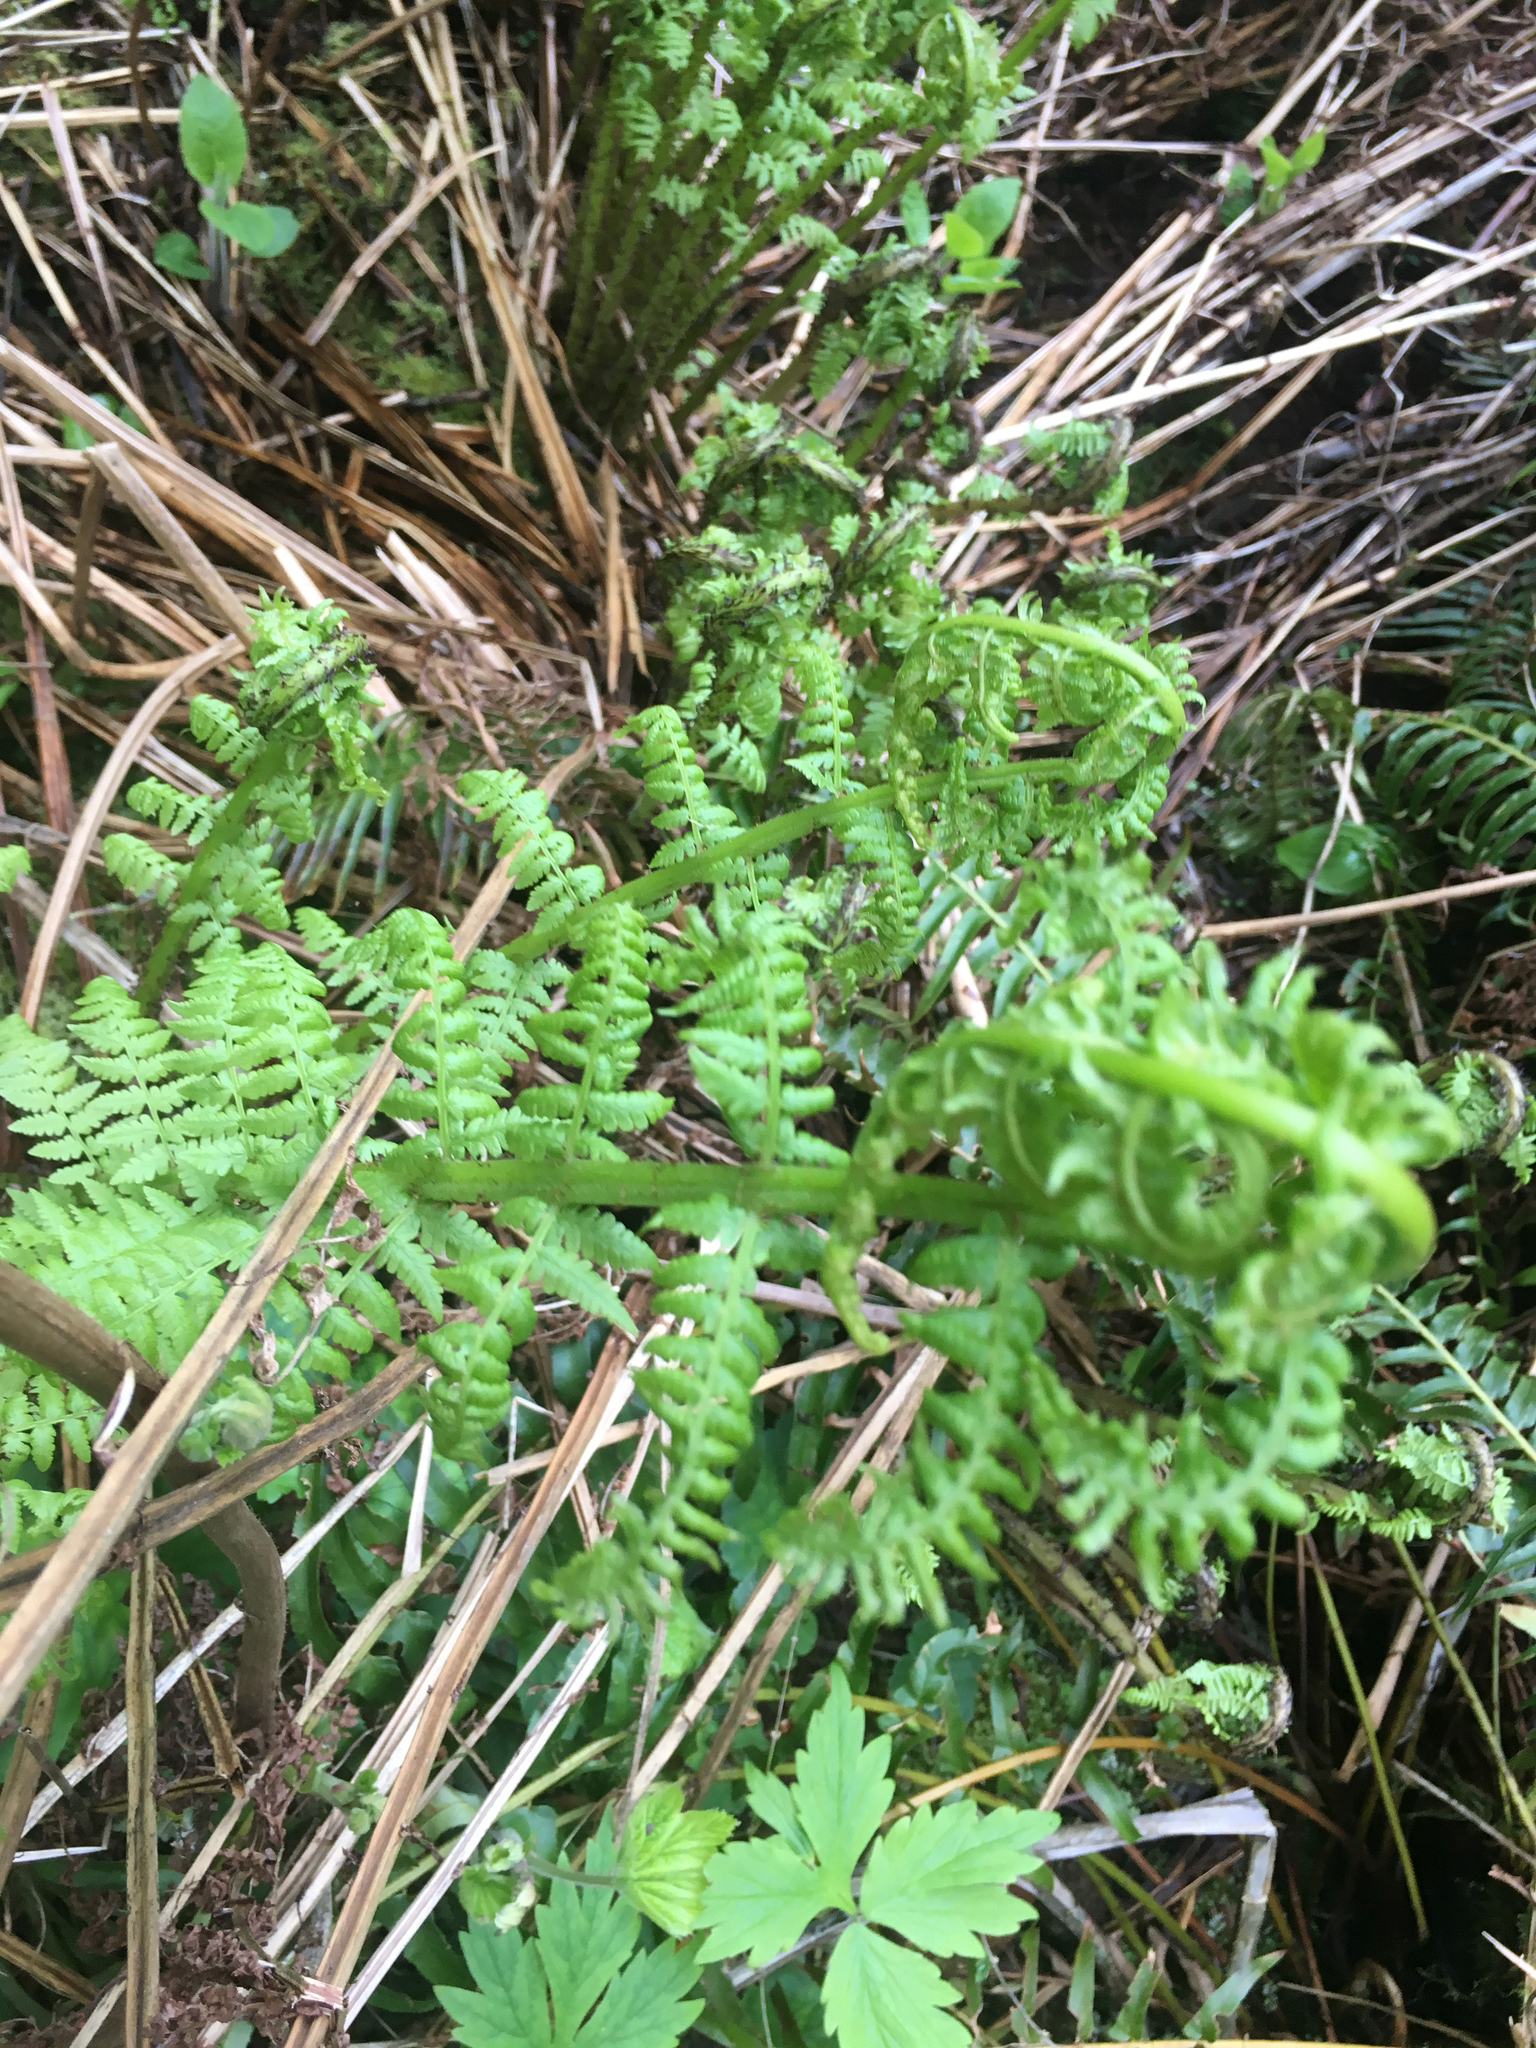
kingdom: Plantae
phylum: Tracheophyta
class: Polypodiopsida
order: Polypodiales
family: Athyriaceae
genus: Athyrium
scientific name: Athyrium cyclosorum
